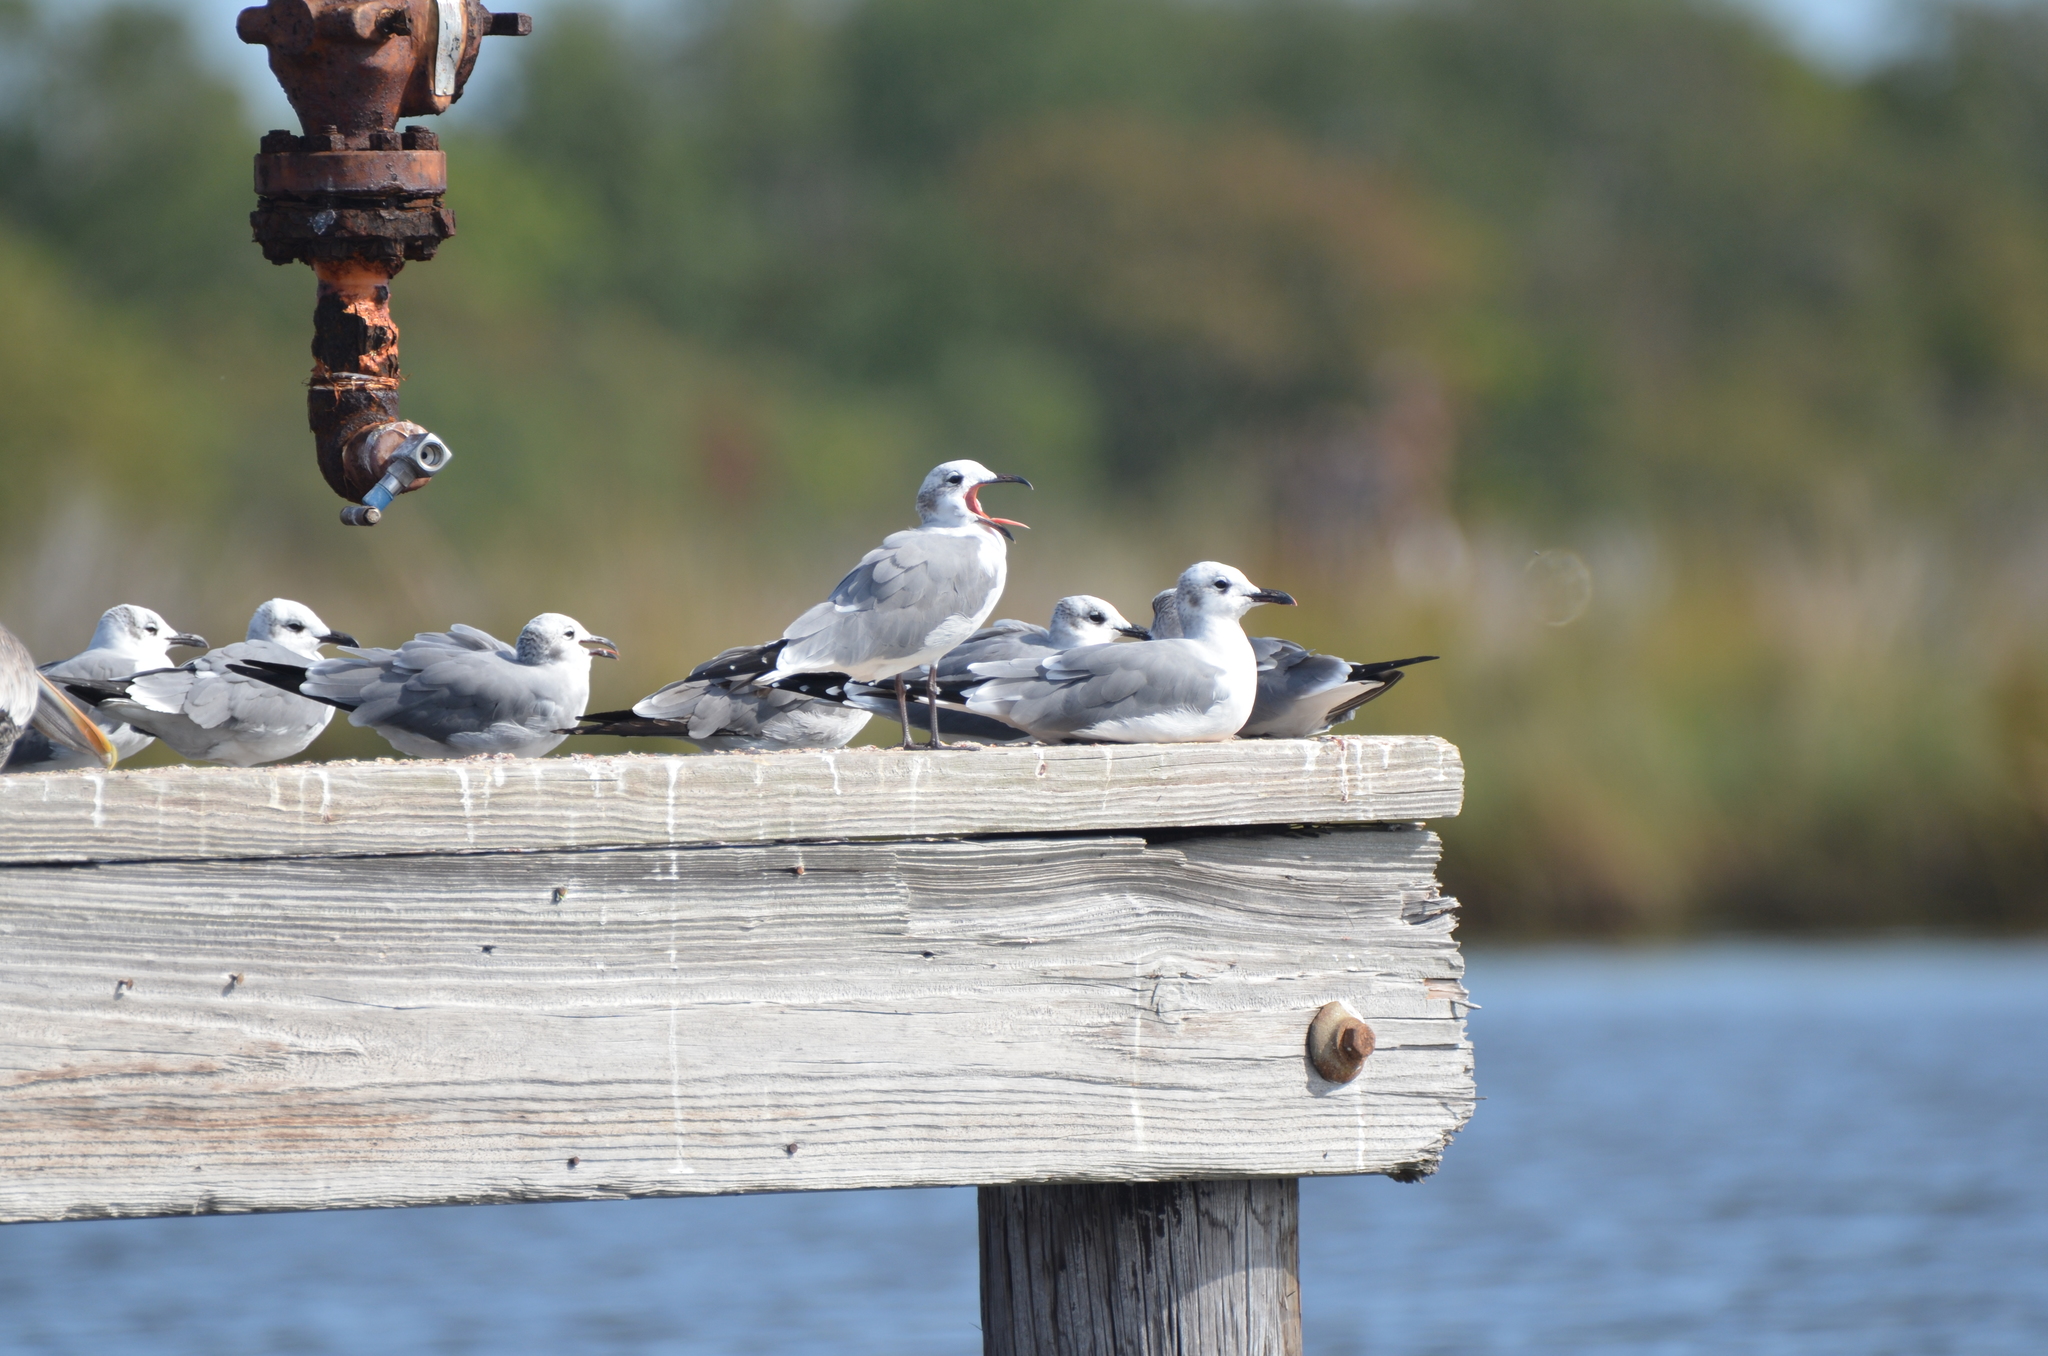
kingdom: Animalia
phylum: Chordata
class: Aves
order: Charadriiformes
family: Laridae
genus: Leucophaeus
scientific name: Leucophaeus atricilla
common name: Laughing gull
